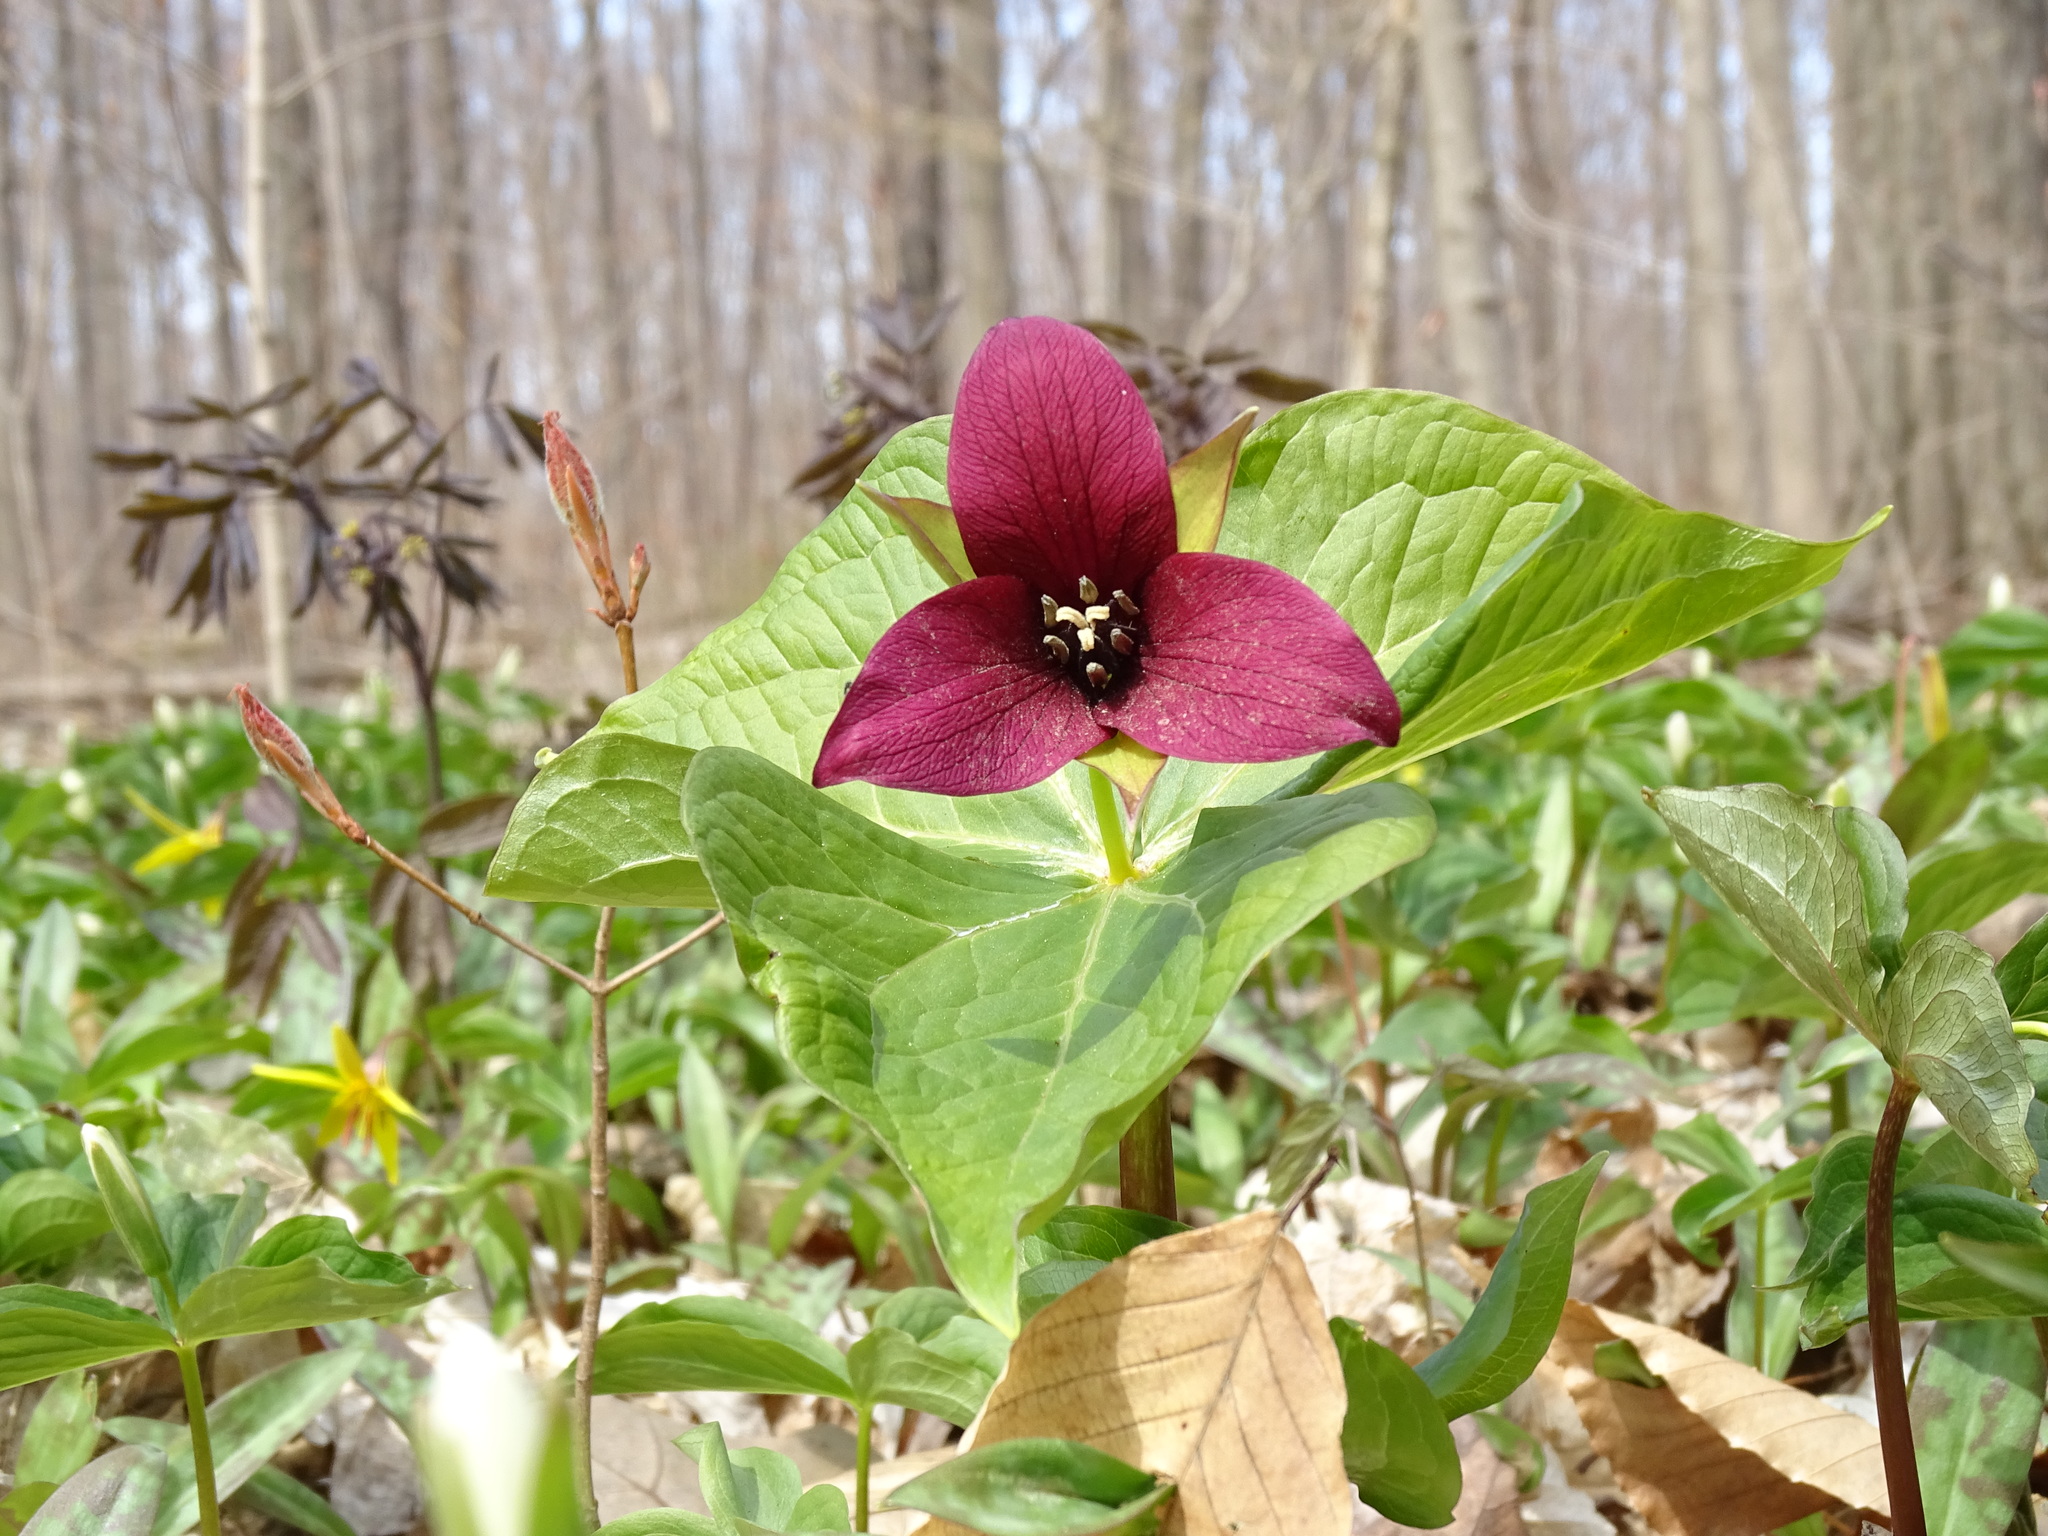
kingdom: Plantae
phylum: Tracheophyta
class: Liliopsida
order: Liliales
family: Melanthiaceae
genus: Trillium
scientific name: Trillium erectum
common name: Purple trillium
